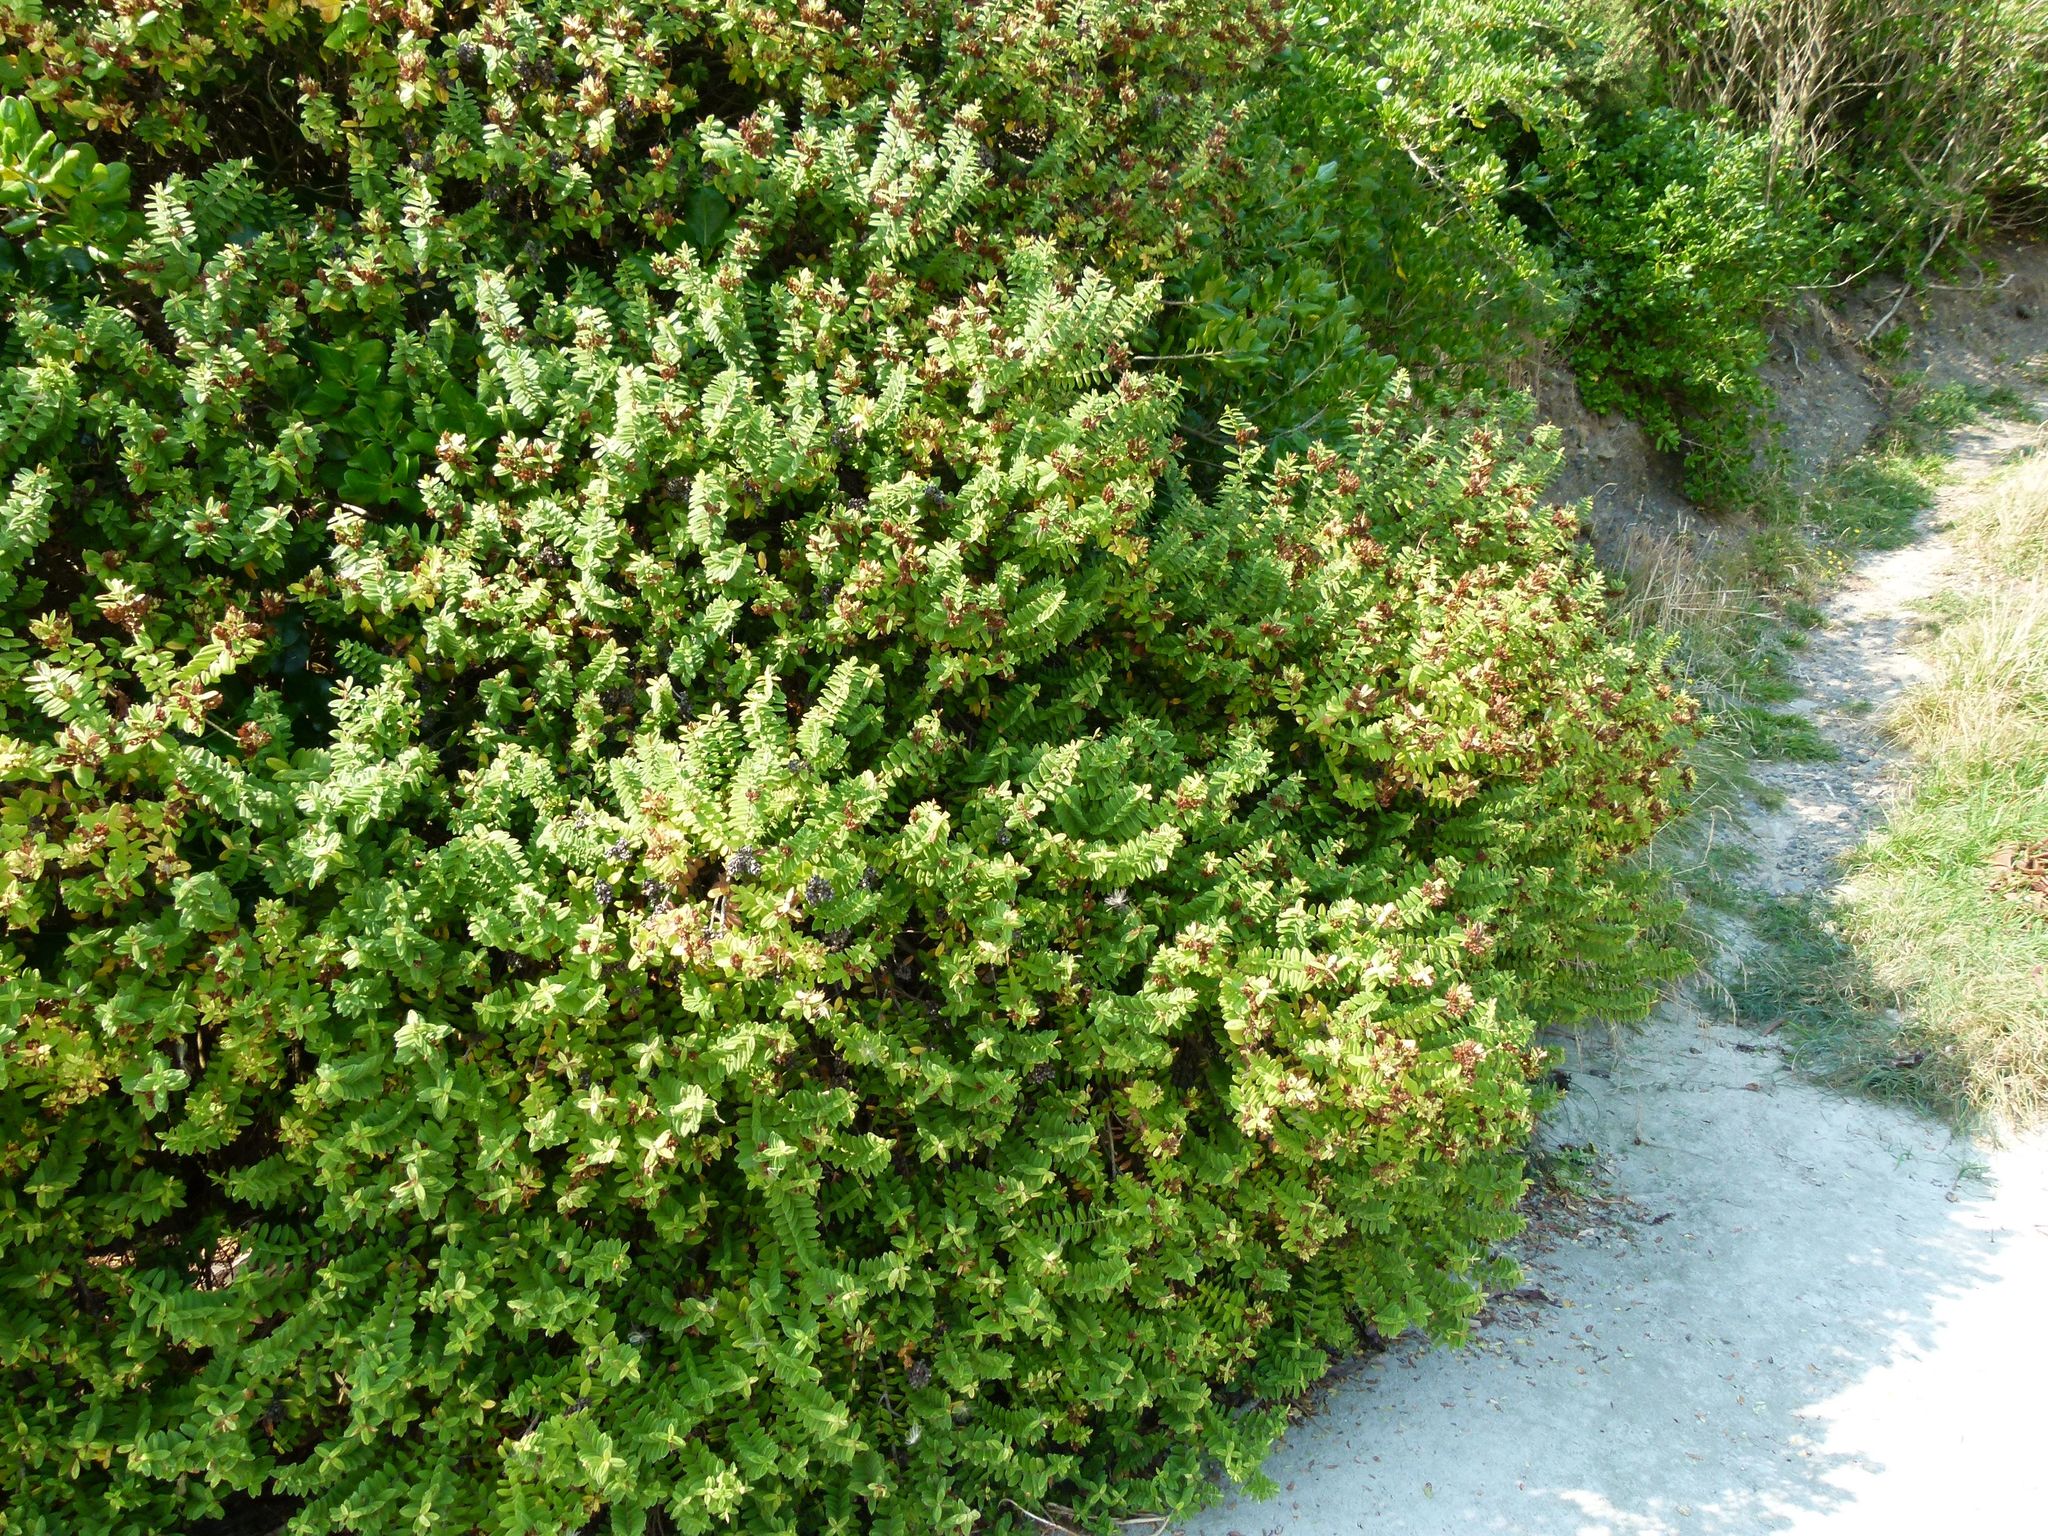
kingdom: Plantae
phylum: Tracheophyta
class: Magnoliopsida
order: Lamiales
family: Plantaginaceae
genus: Veronica
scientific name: Veronica elliptica
